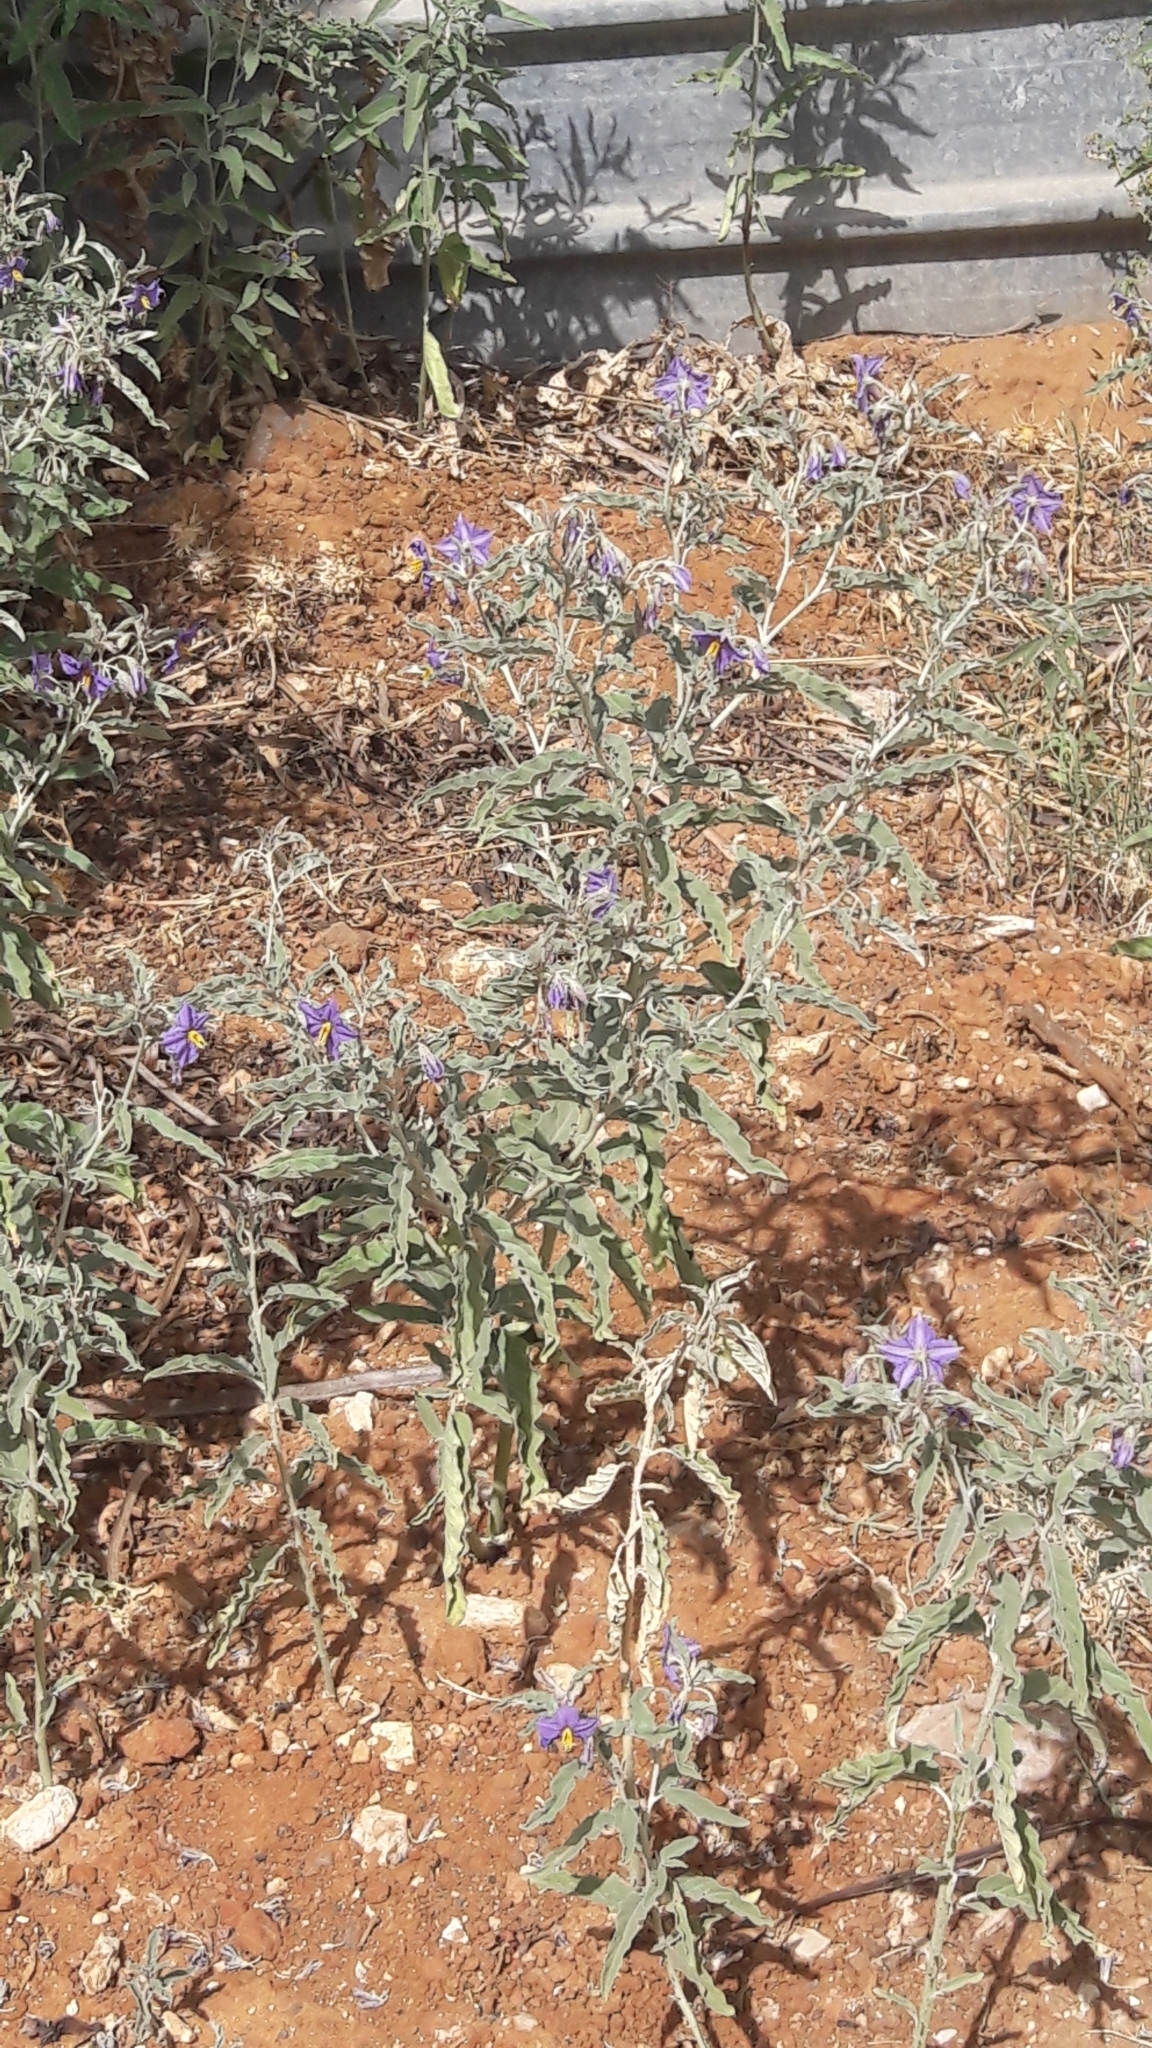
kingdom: Plantae
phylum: Tracheophyta
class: Magnoliopsida
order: Solanales
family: Solanaceae
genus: Solanum
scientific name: Solanum elaeagnifolium
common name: Silverleaf nightshade
